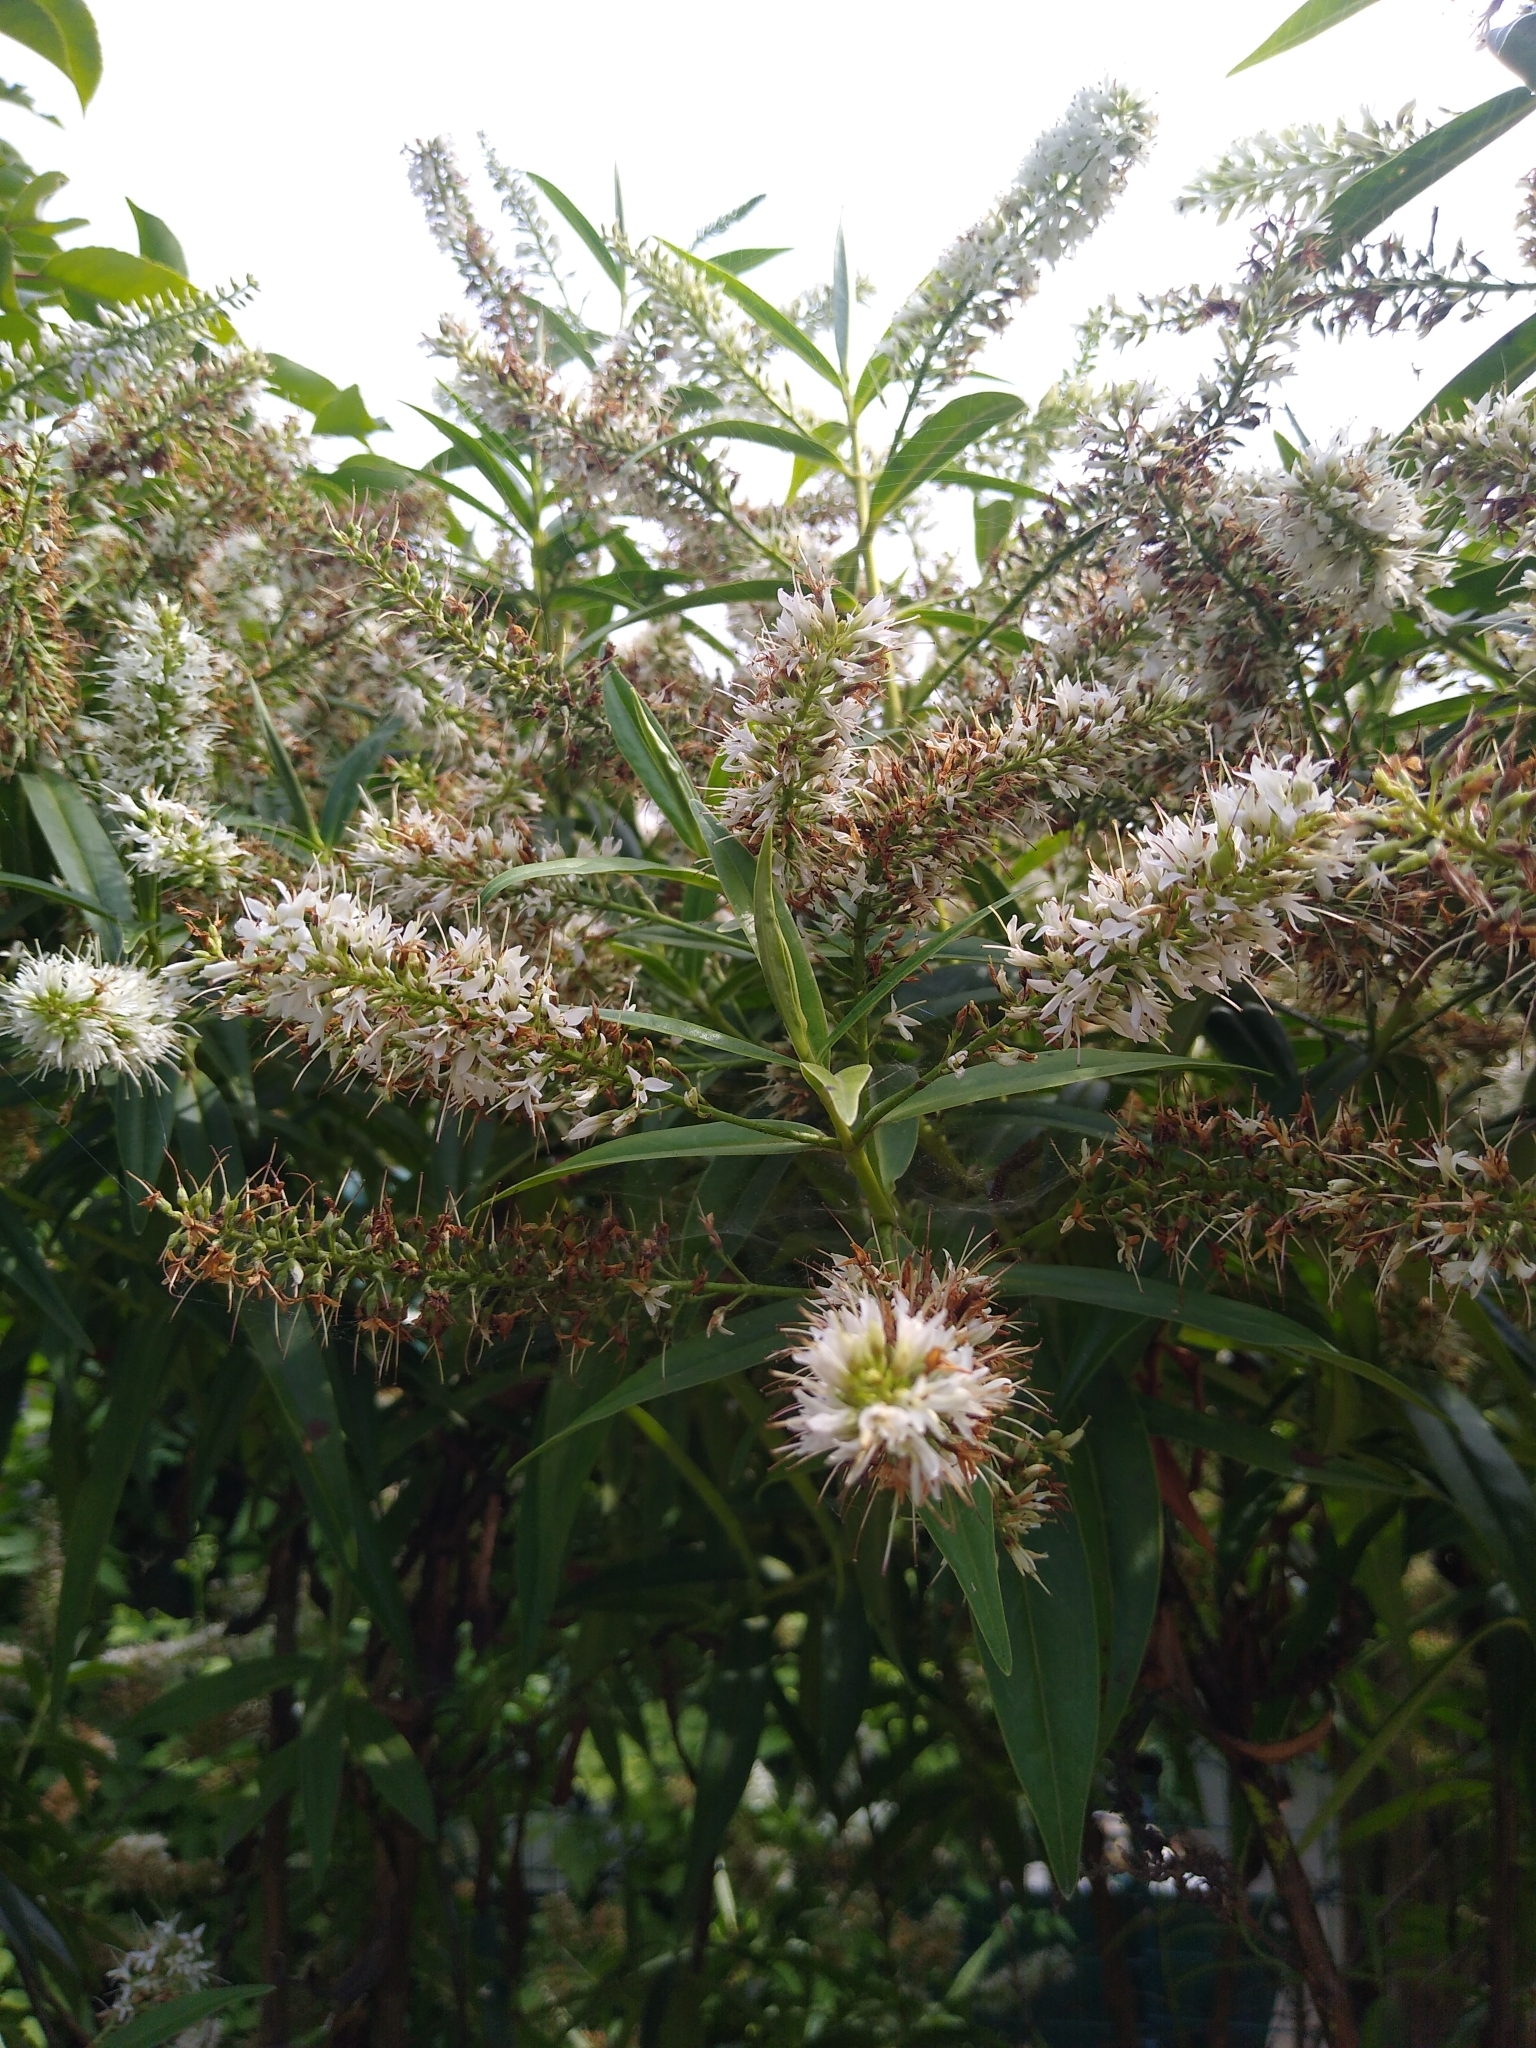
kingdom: Plantae
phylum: Tracheophyta
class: Magnoliopsida
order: Lamiales
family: Plantaginaceae
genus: Veronica
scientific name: Veronica salicifolia
